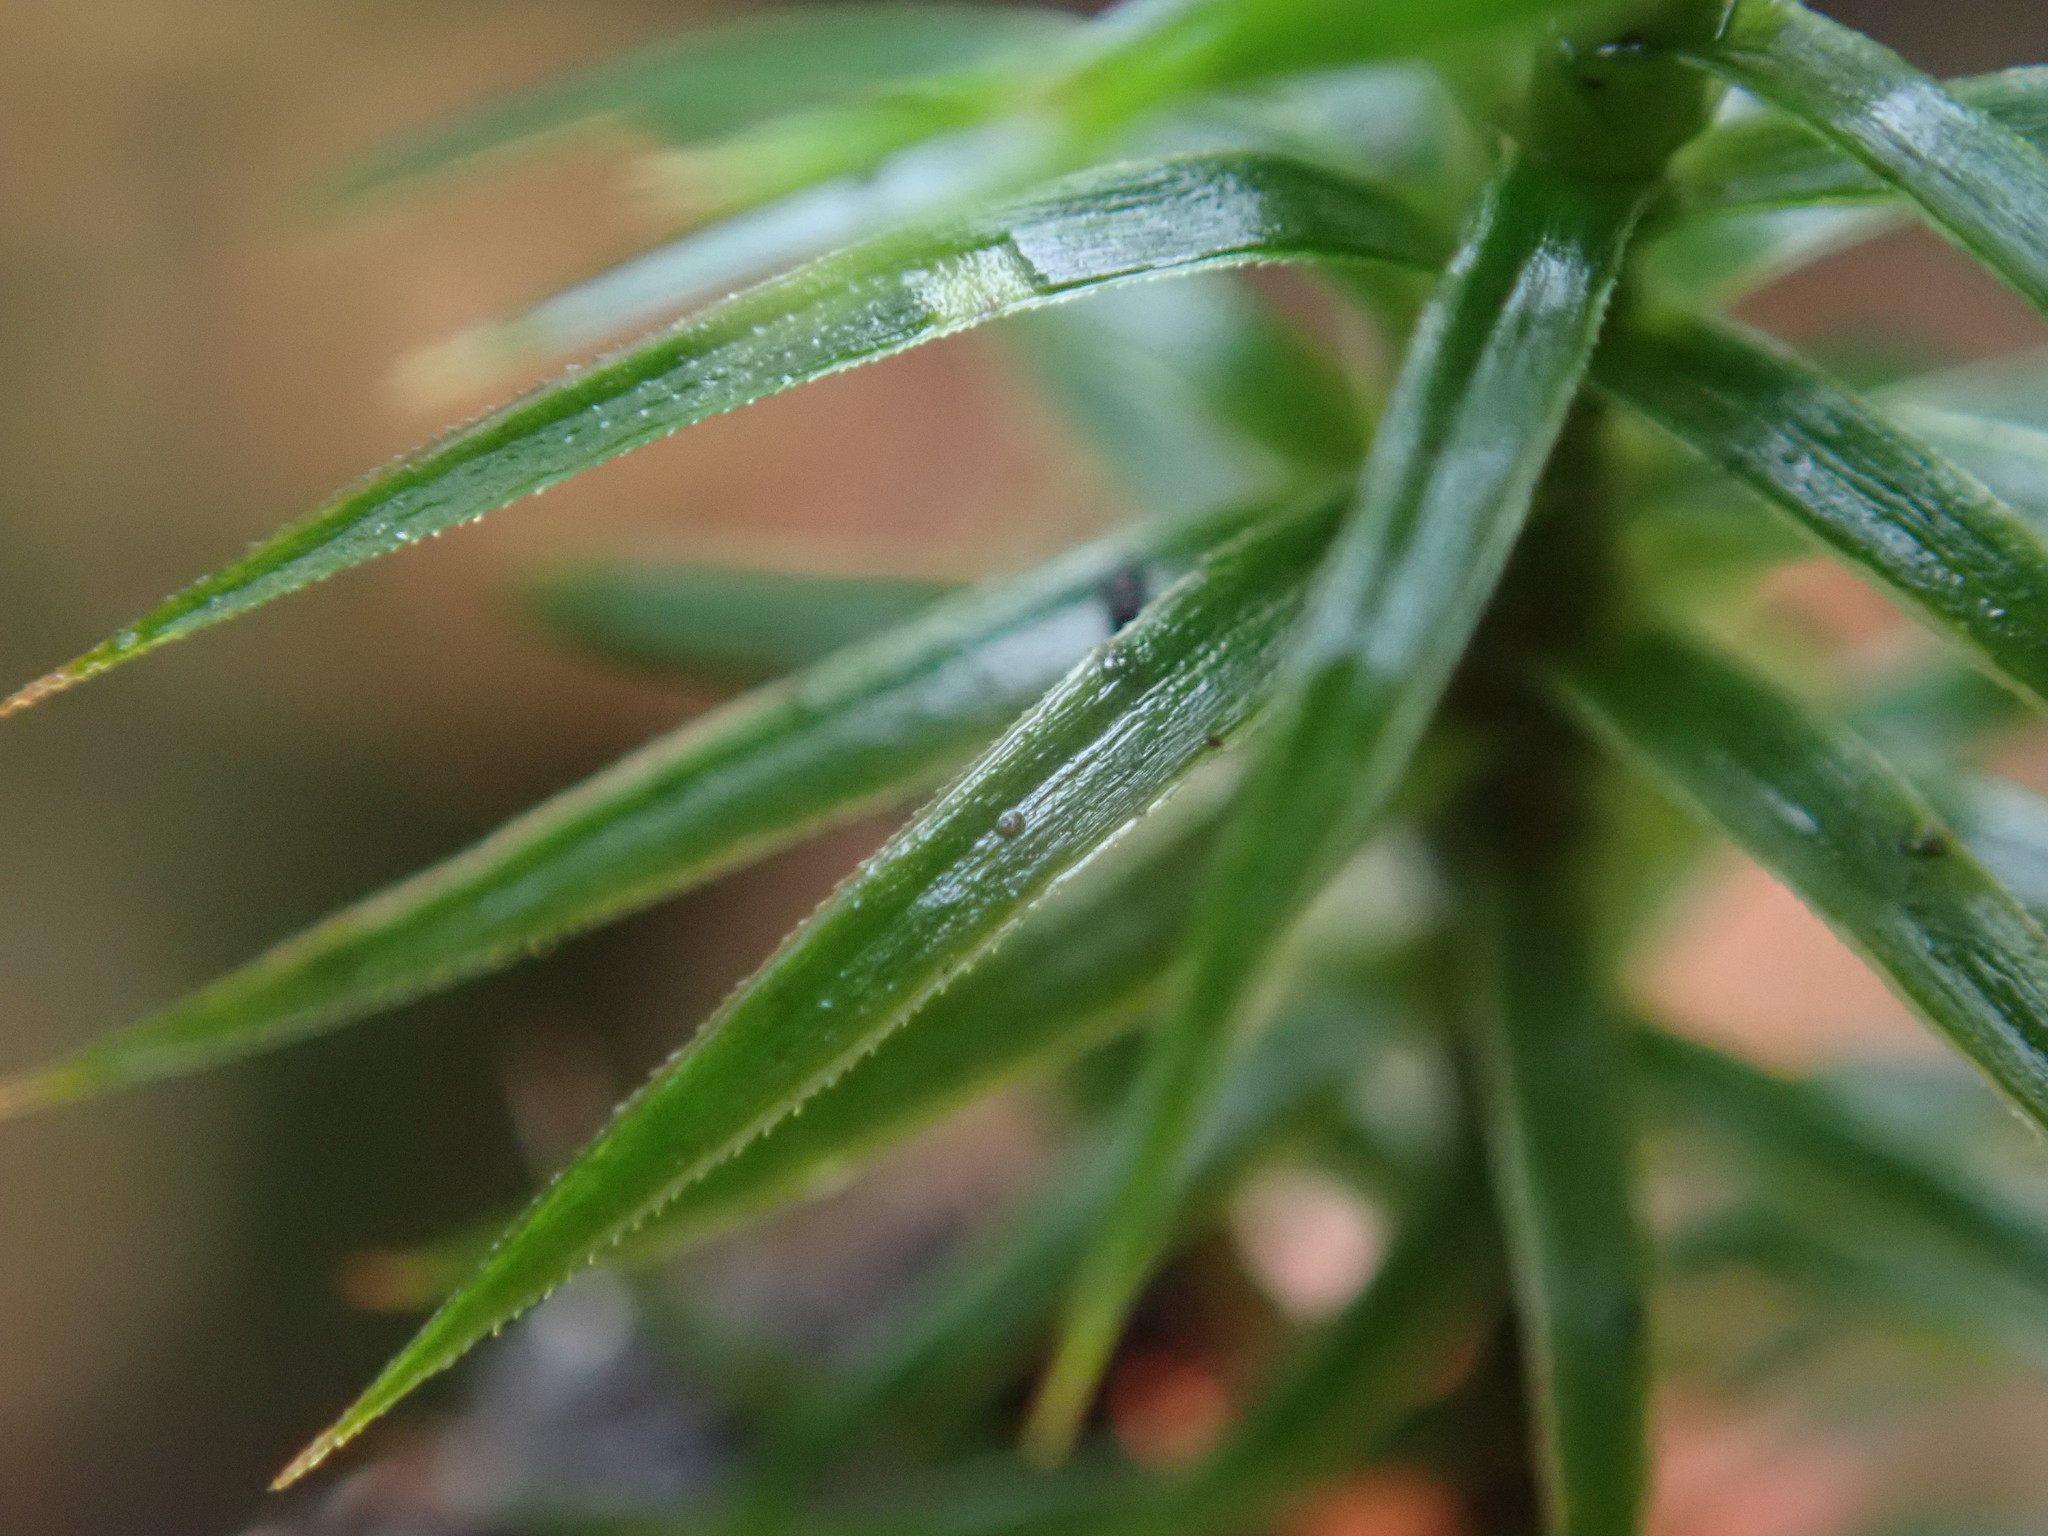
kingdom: Plantae
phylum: Bryophyta
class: Polytrichopsida
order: Polytrichales
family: Polytrichaceae
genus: Polytrichum
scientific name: Polytrichum formosum
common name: Bank haircap moss
